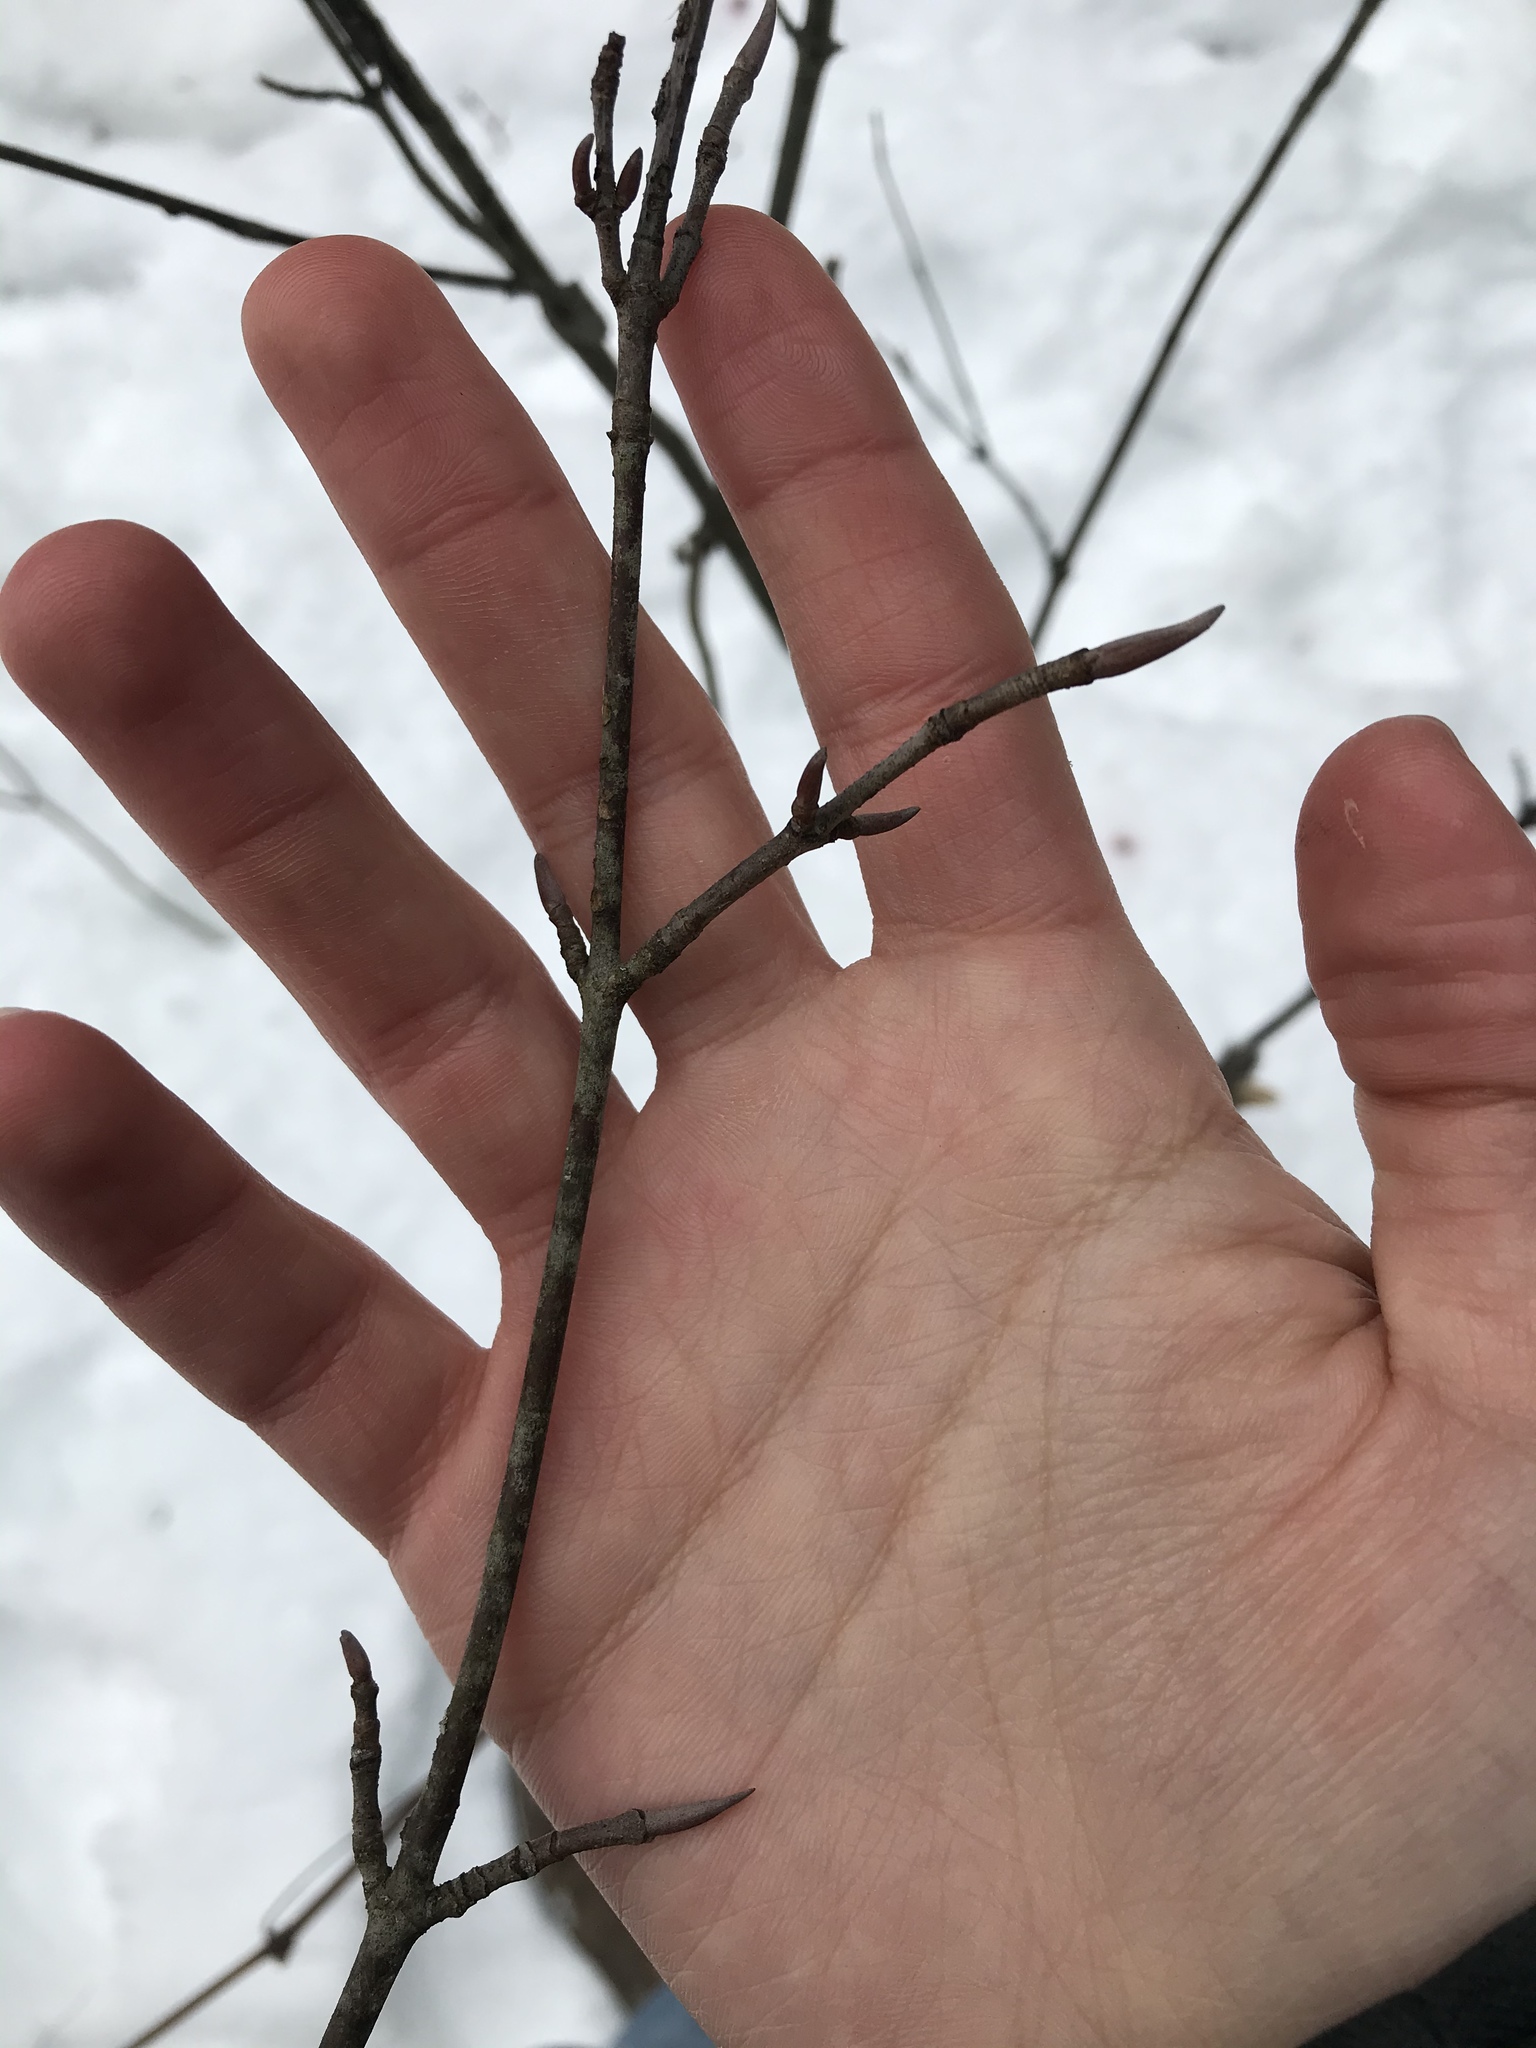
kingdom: Plantae
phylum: Tracheophyta
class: Magnoliopsida
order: Dipsacales
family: Viburnaceae
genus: Viburnum
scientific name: Viburnum lentago
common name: Black haw
